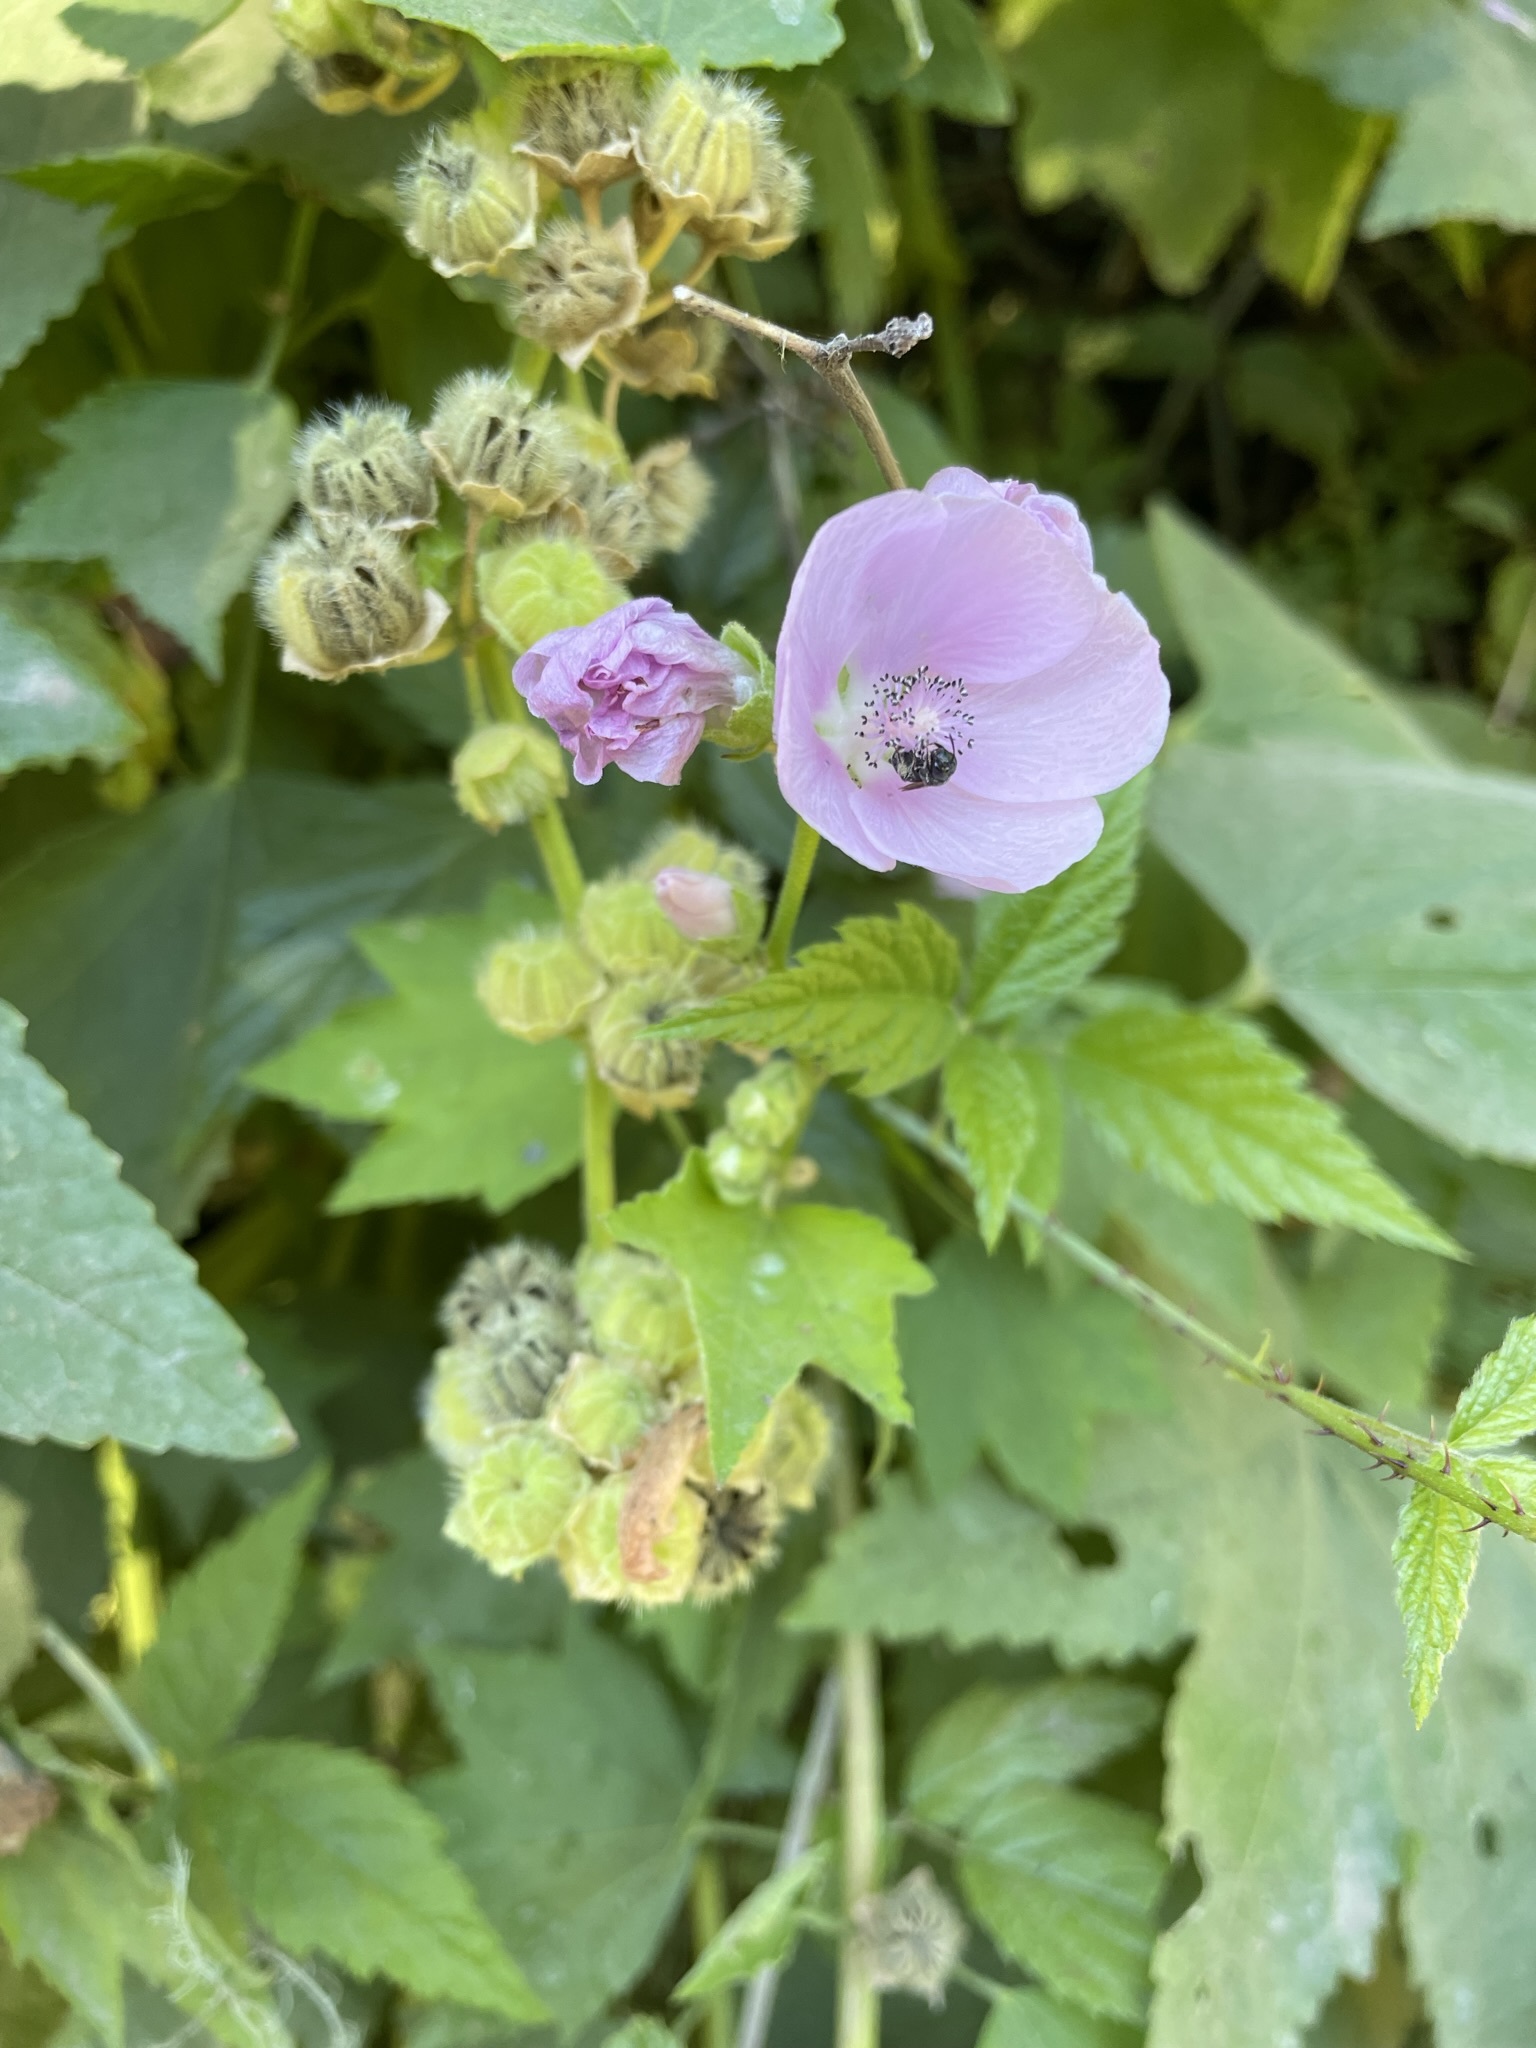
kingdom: Plantae
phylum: Tracheophyta
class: Magnoliopsida
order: Malvales
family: Malvaceae
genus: Iliamna
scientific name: Iliamna rivularis
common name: Wild hollyhock
